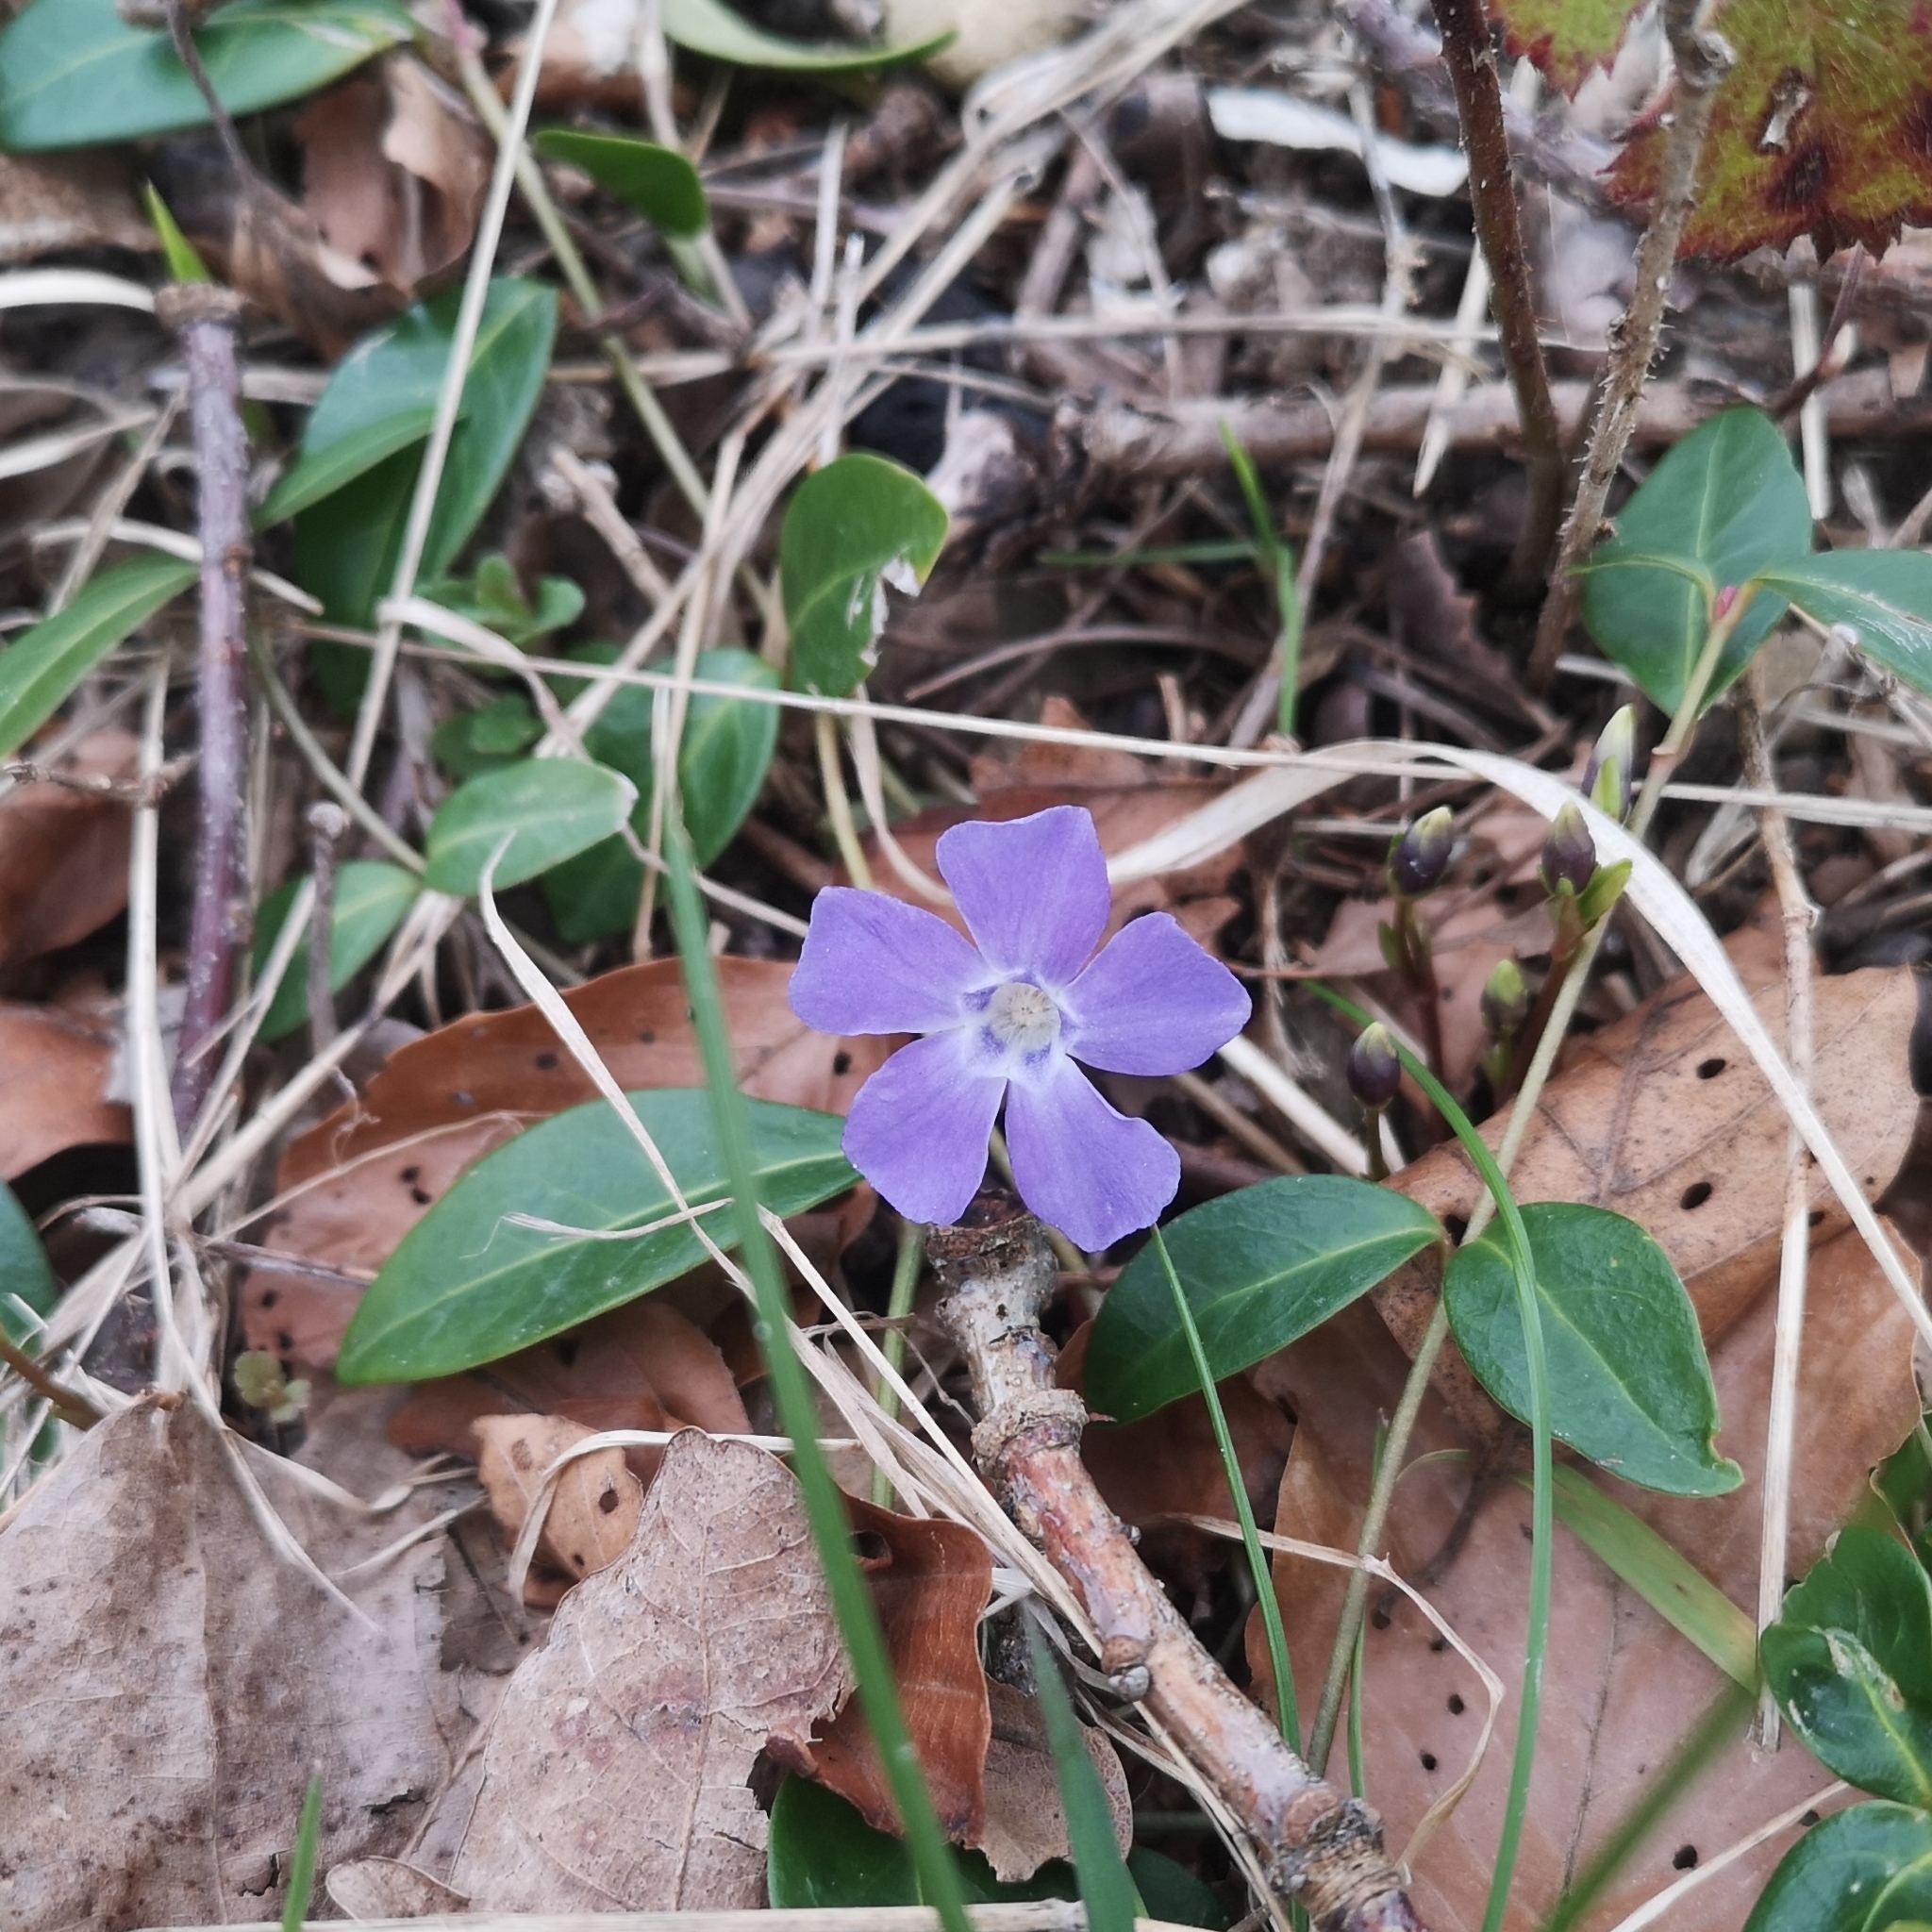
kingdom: Plantae
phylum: Tracheophyta
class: Magnoliopsida
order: Gentianales
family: Apocynaceae
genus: Vinca
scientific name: Vinca minor
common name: Lesser periwinkle
